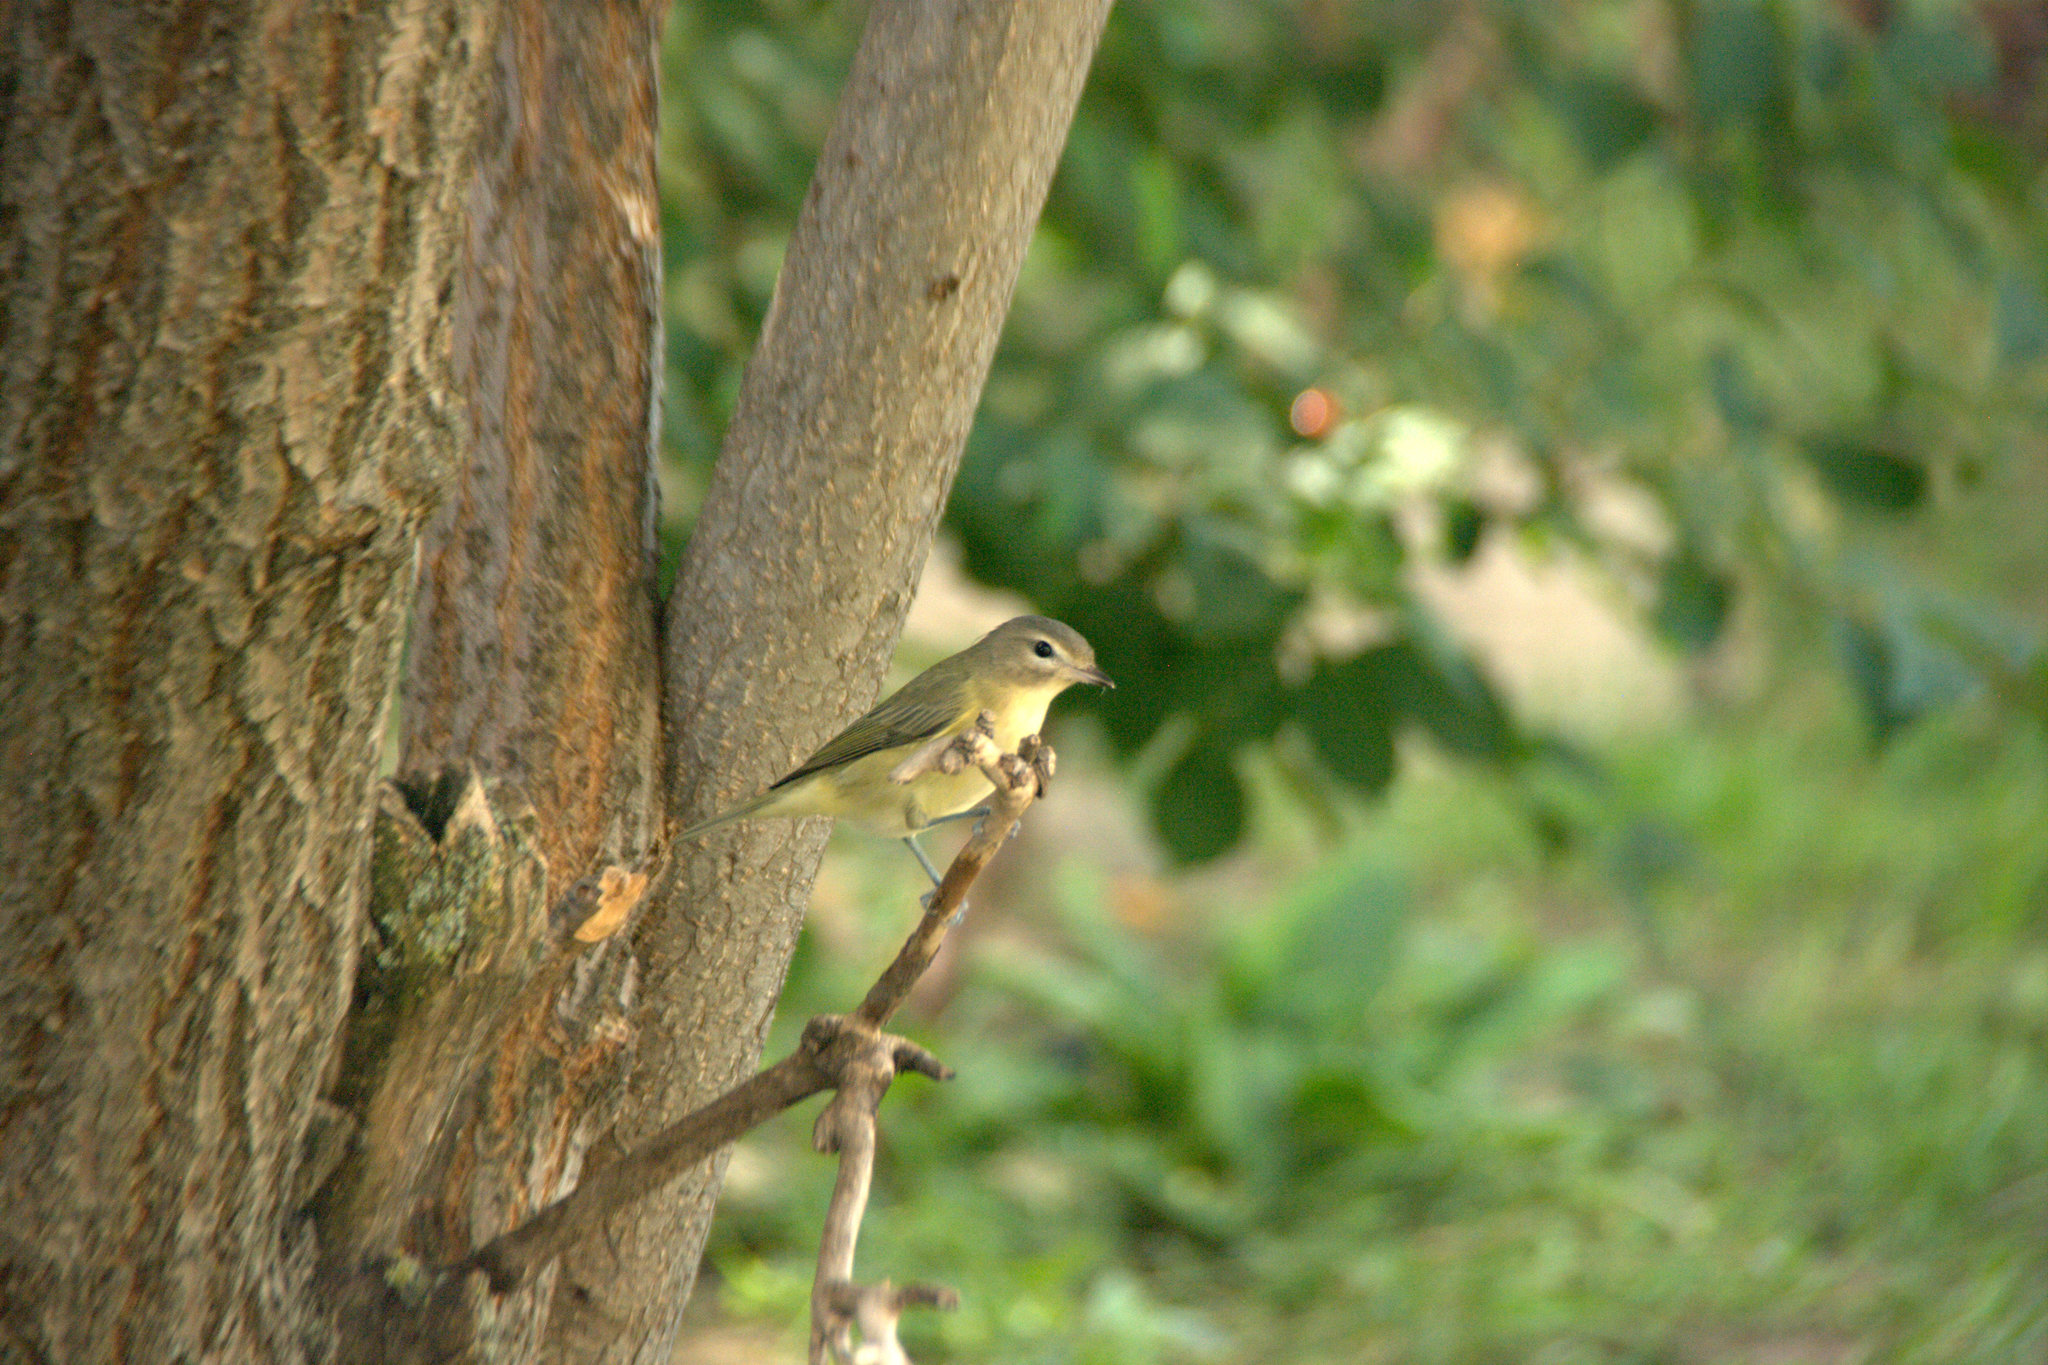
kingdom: Animalia
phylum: Chordata
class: Aves
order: Passeriformes
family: Vireonidae
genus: Vireo
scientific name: Vireo philadelphicus
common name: Philadelphia vireo
